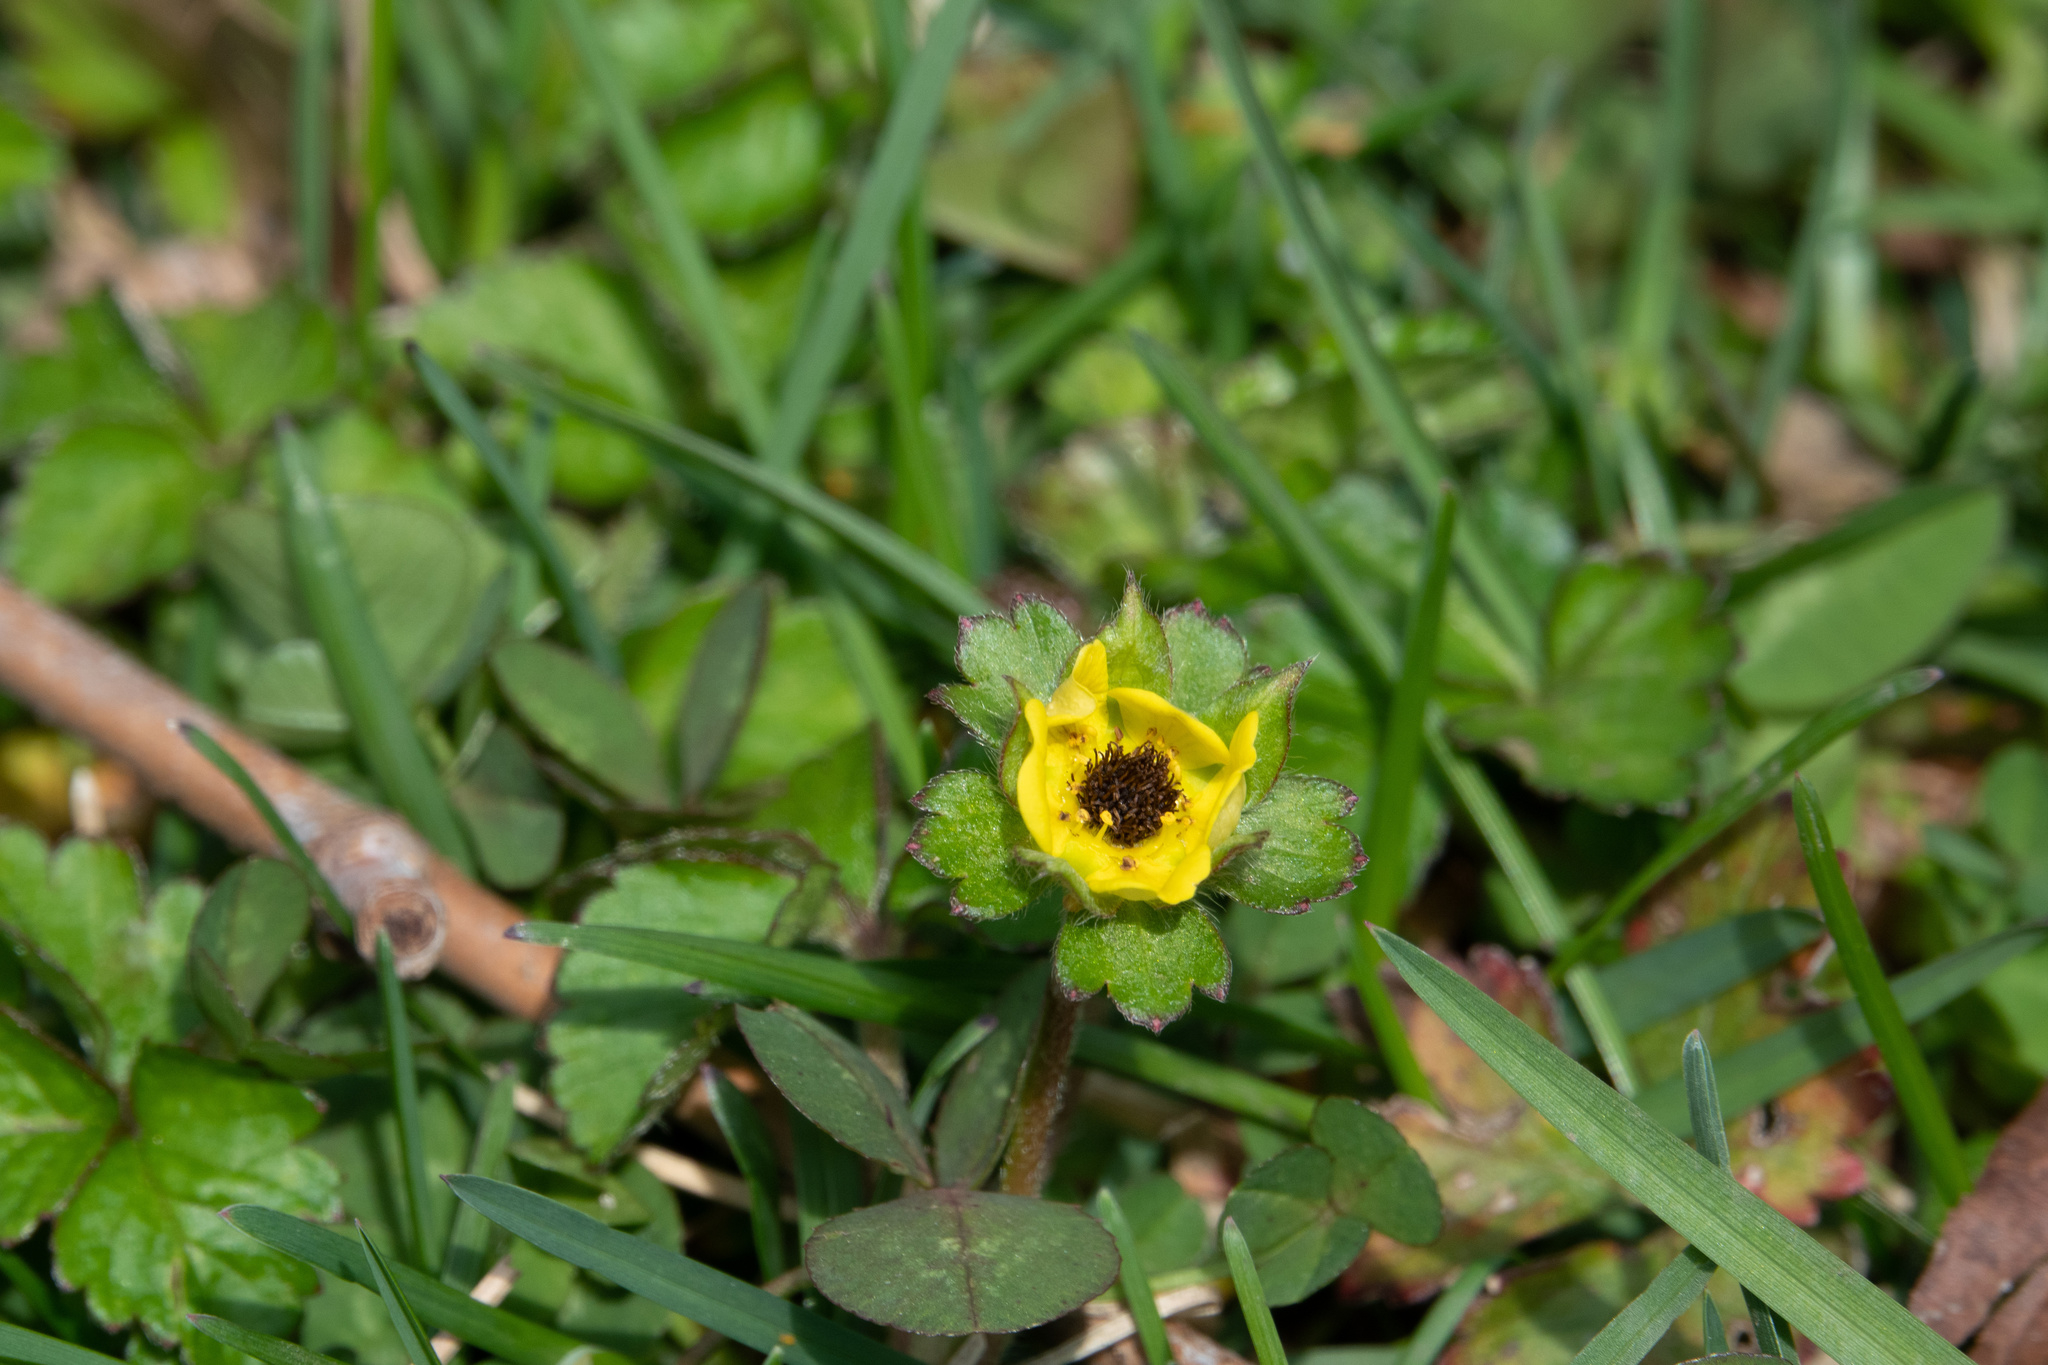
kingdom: Plantae
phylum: Tracheophyta
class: Magnoliopsida
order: Rosales
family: Rosaceae
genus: Potentilla
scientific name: Potentilla indica
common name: Yellow-flowered strawberry
